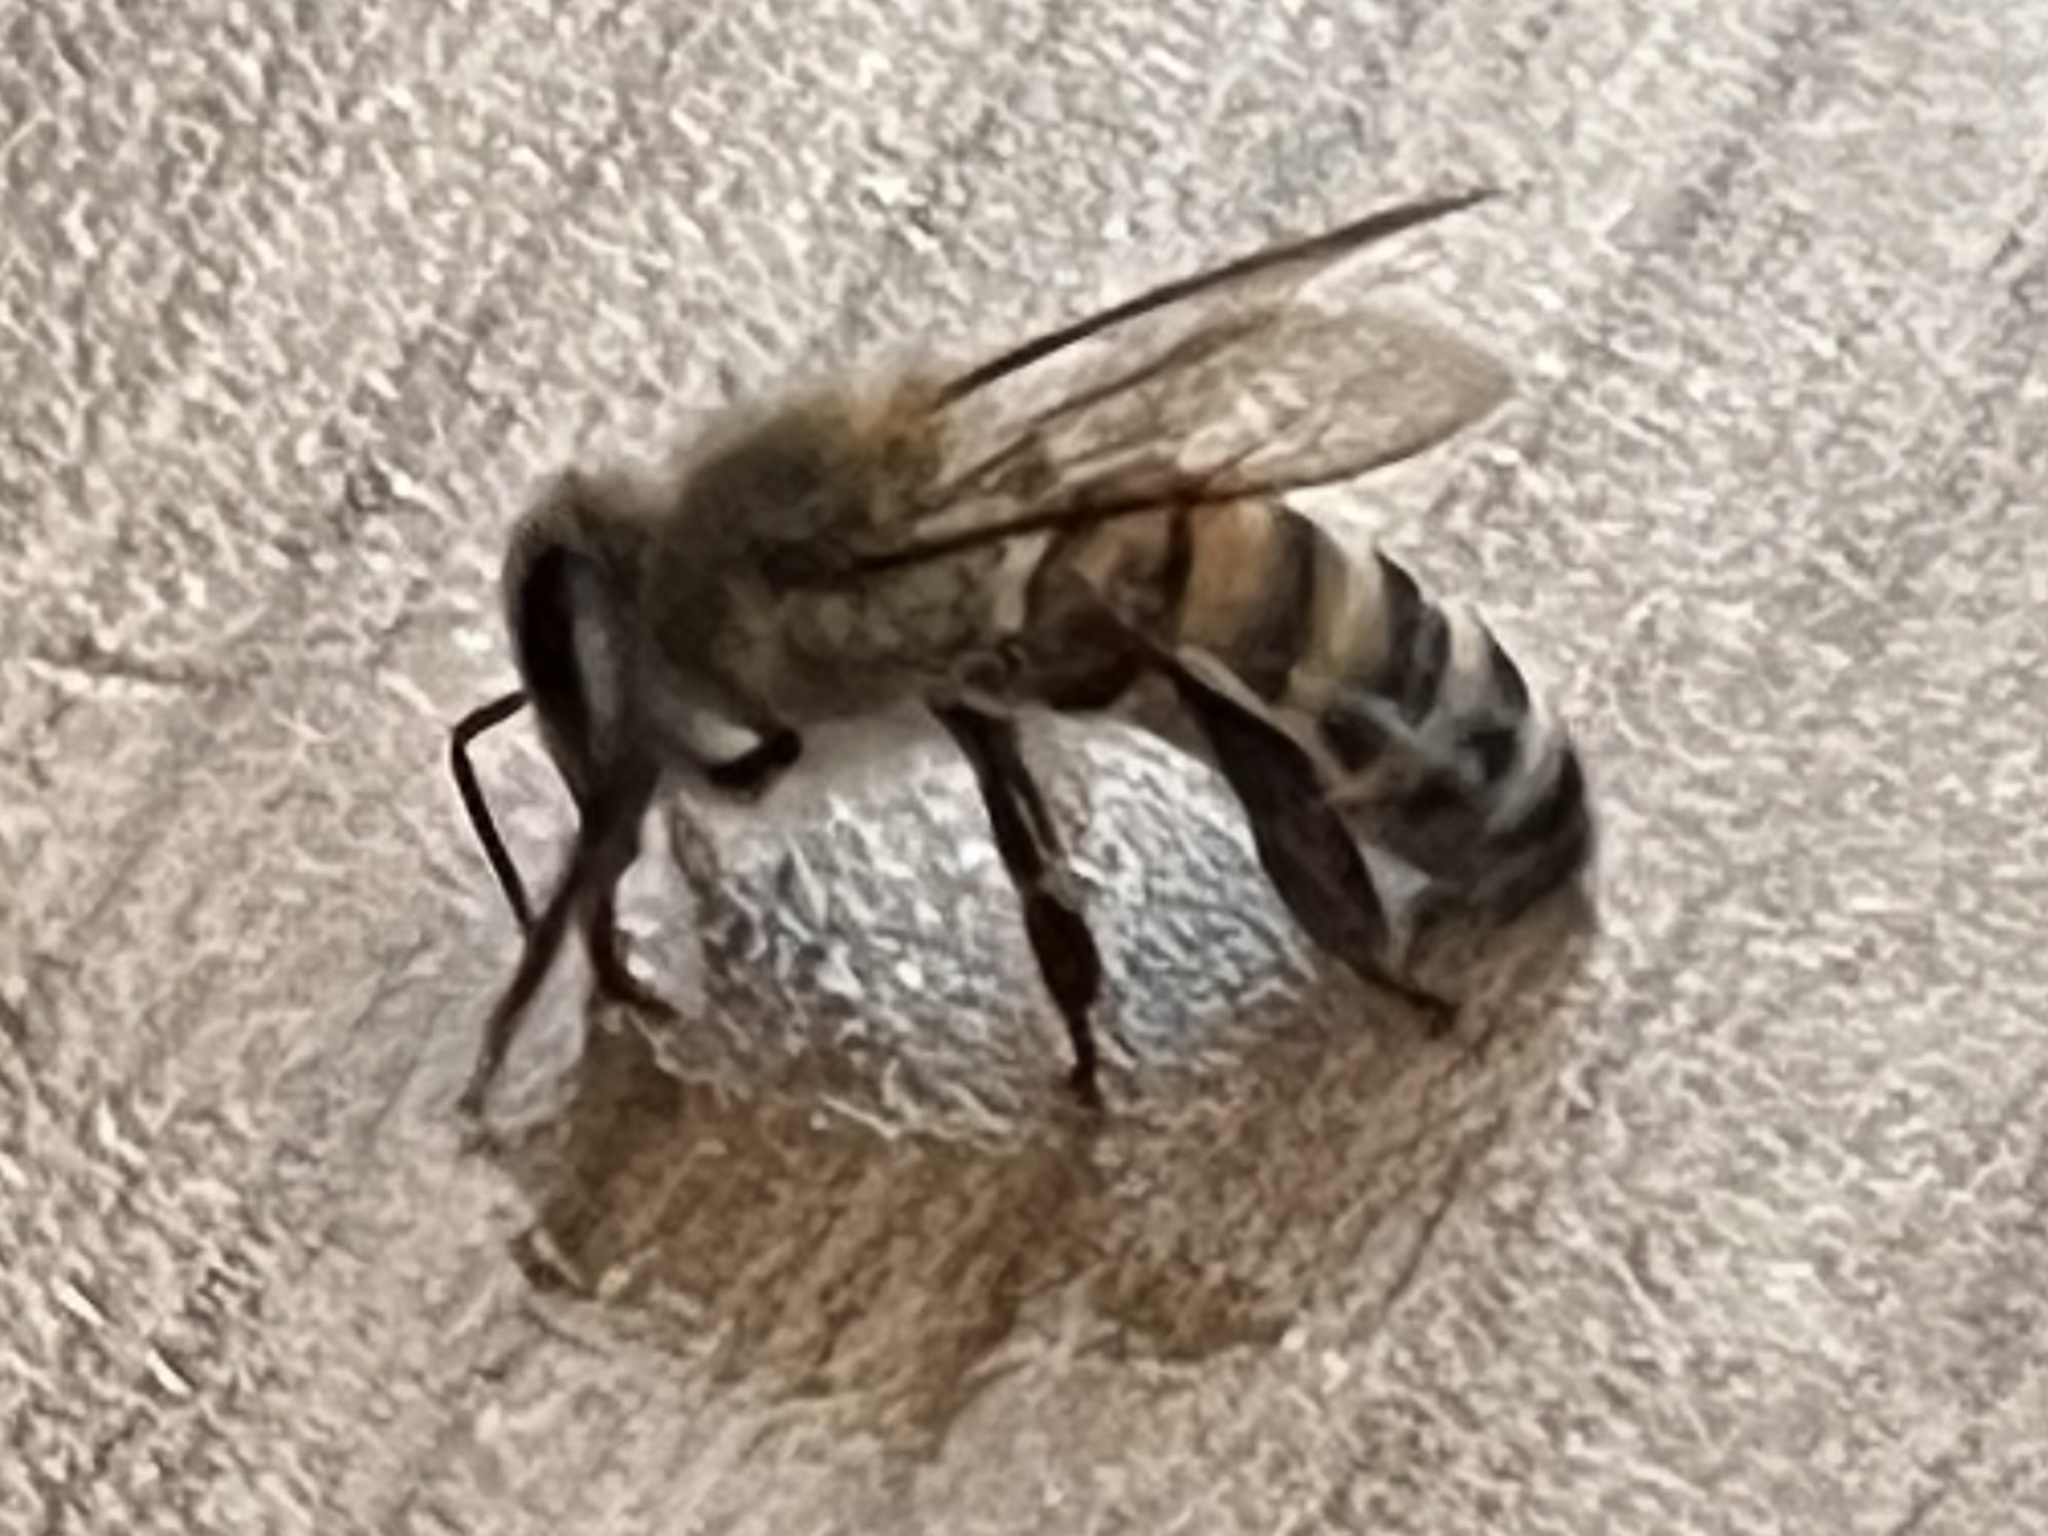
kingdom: Animalia
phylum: Arthropoda
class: Insecta
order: Hymenoptera
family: Apidae
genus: Apis
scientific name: Apis mellifera
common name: Honey bee
